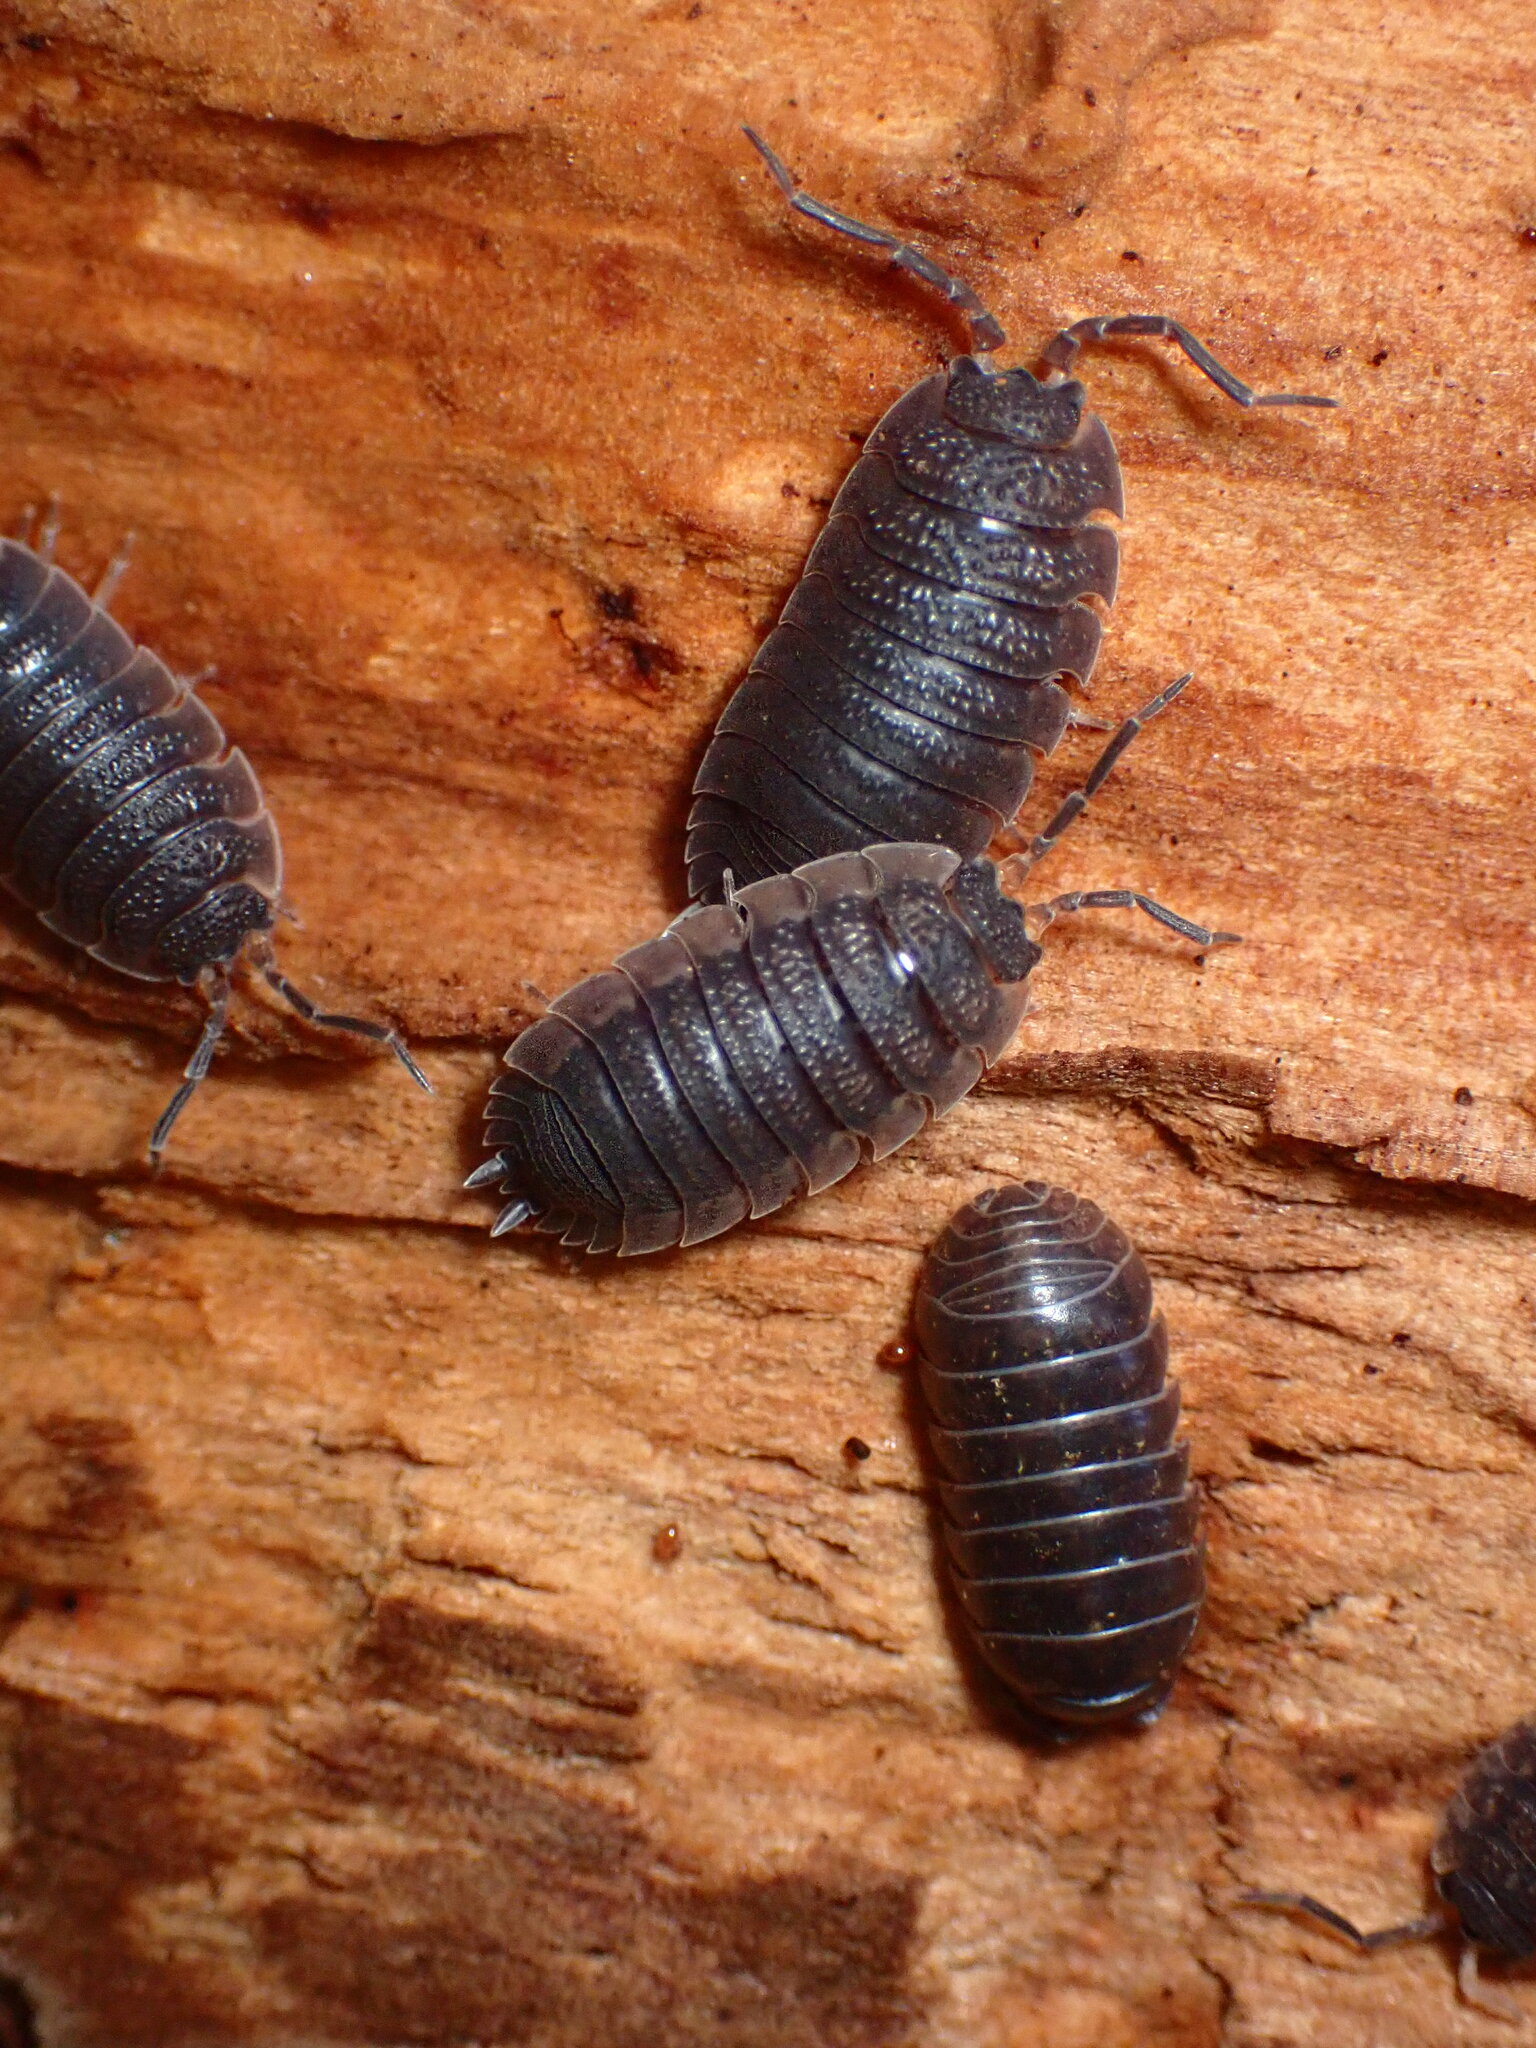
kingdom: Animalia
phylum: Arthropoda
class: Malacostraca
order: Isopoda
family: Porcellionidae
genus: Porcellio
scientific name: Porcellio scaber
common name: Common rough woodlouse
